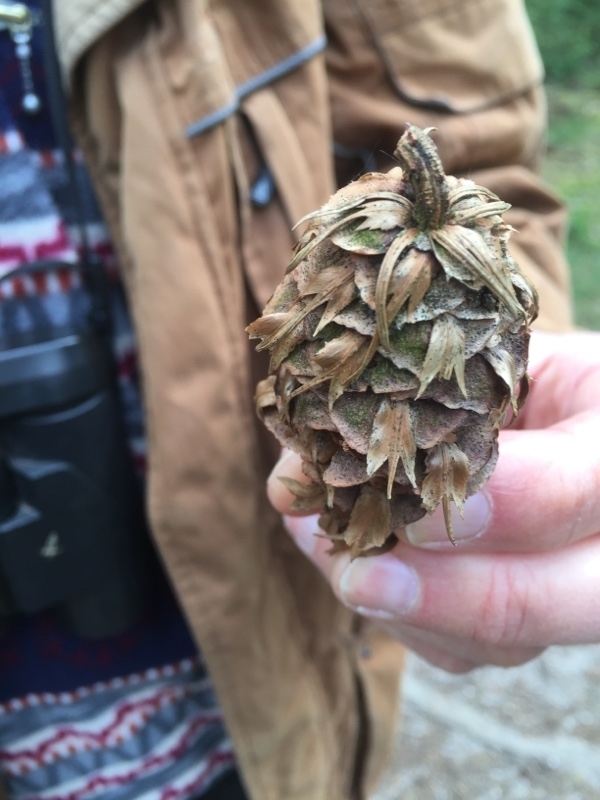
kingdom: Plantae
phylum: Tracheophyta
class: Pinopsida
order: Pinales
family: Pinaceae
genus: Pseudotsuga
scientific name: Pseudotsuga menziesii
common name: Douglas fir
